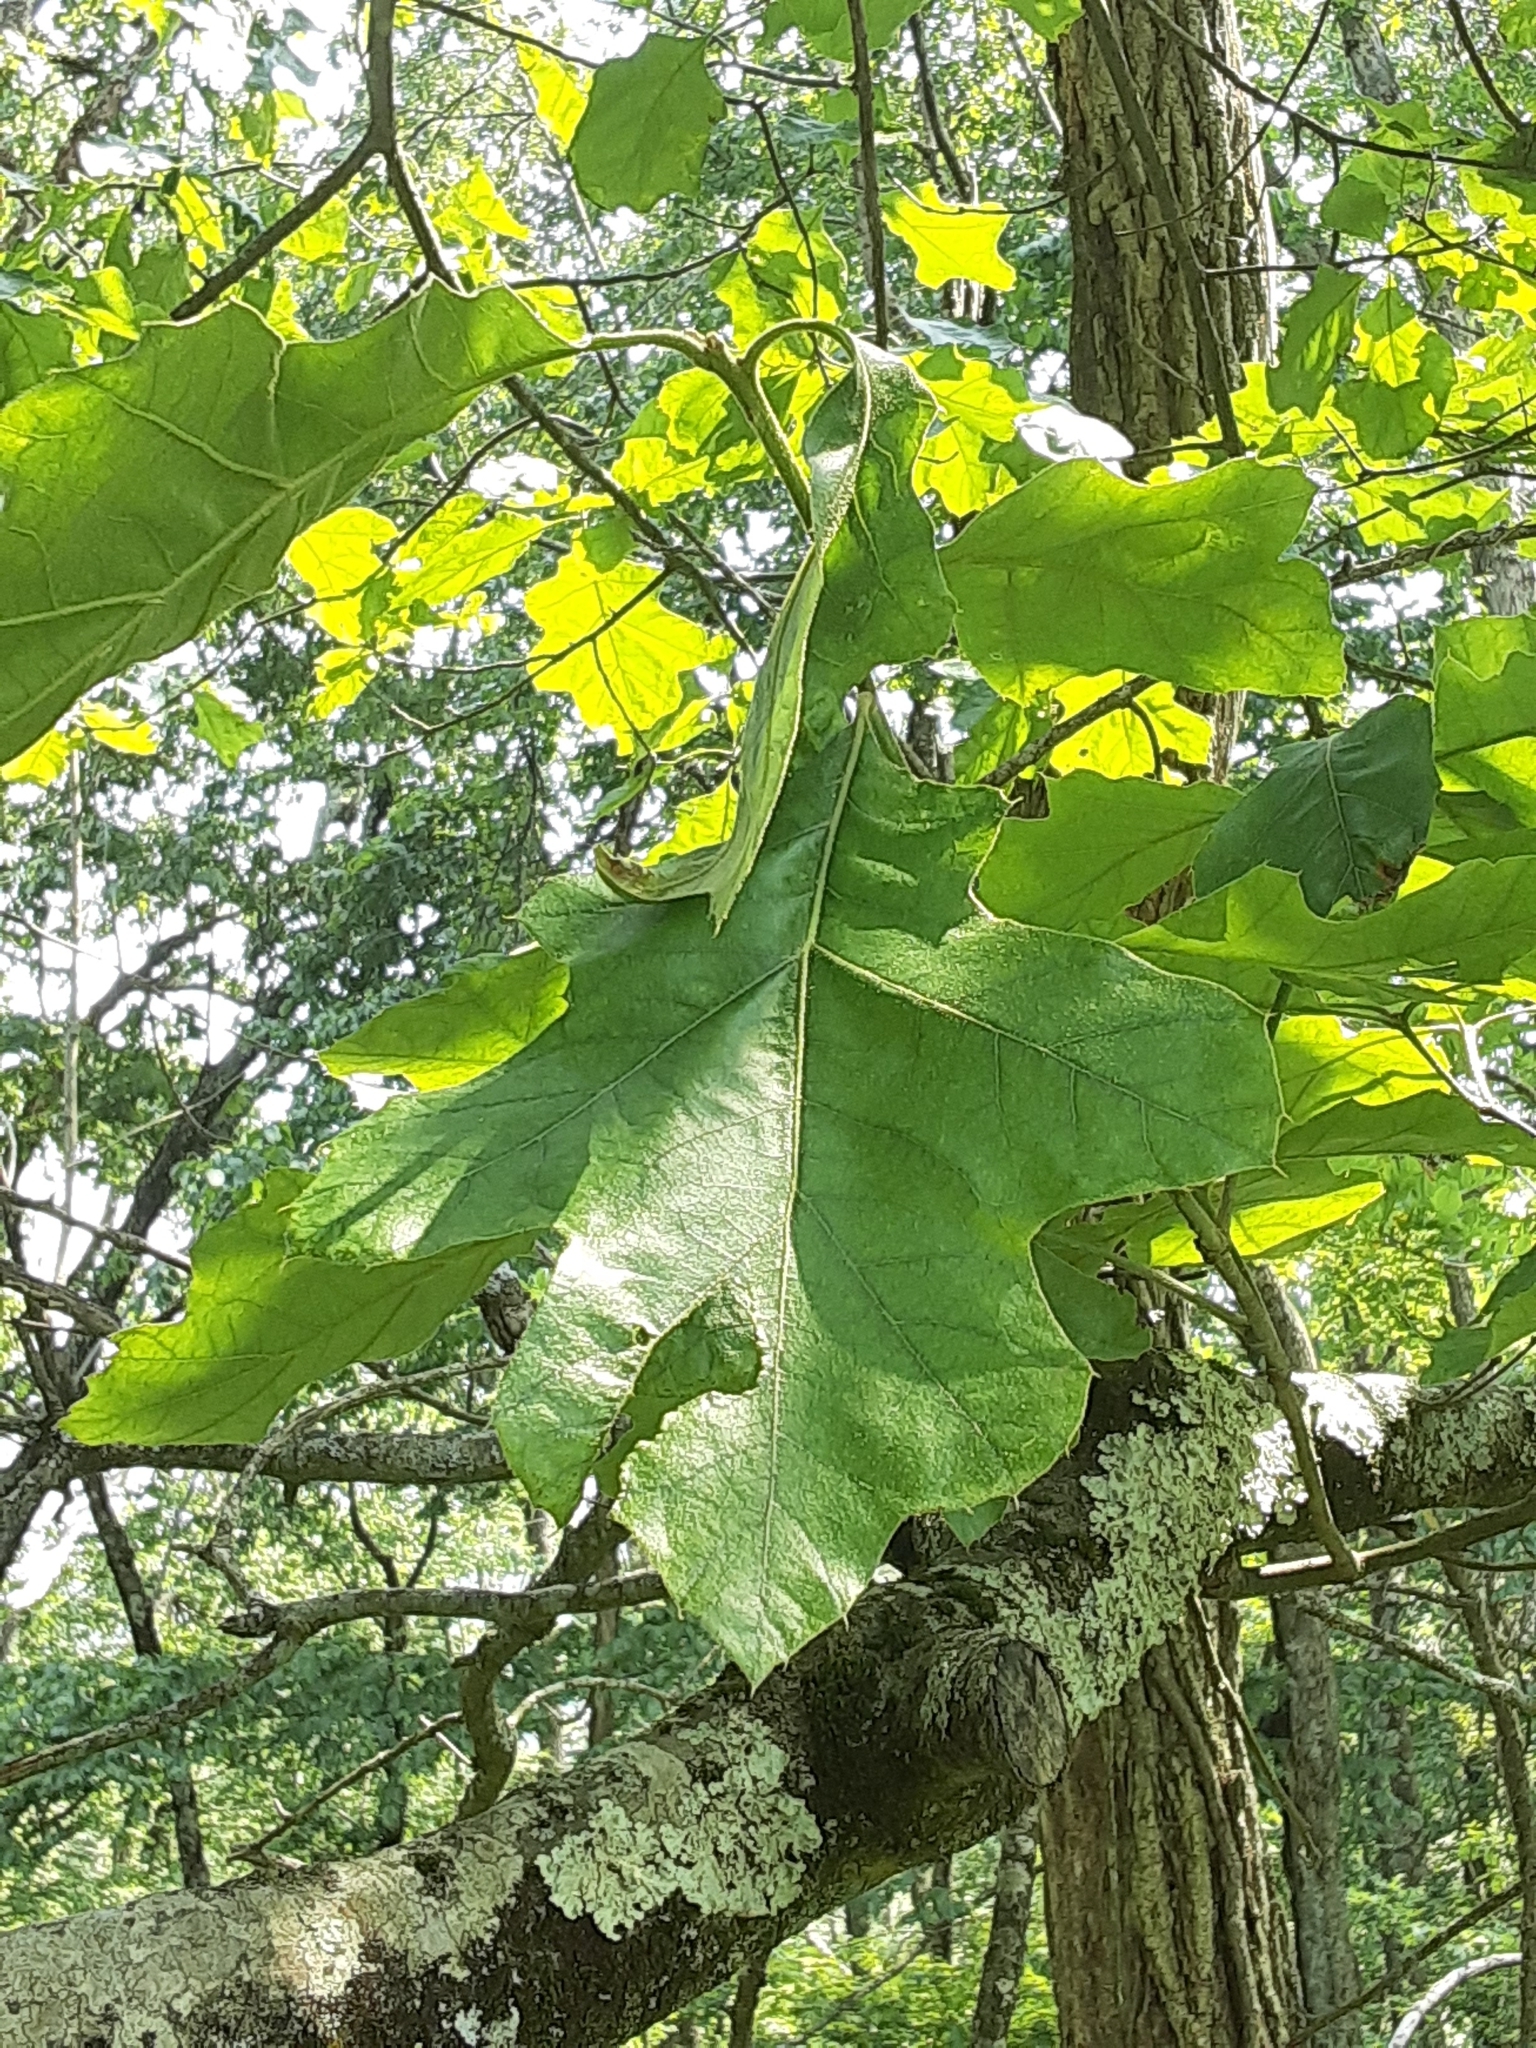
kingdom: Plantae
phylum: Tracheophyta
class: Magnoliopsida
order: Fagales
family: Fagaceae
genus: Quercus
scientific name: Quercus velutina
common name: Black oak
